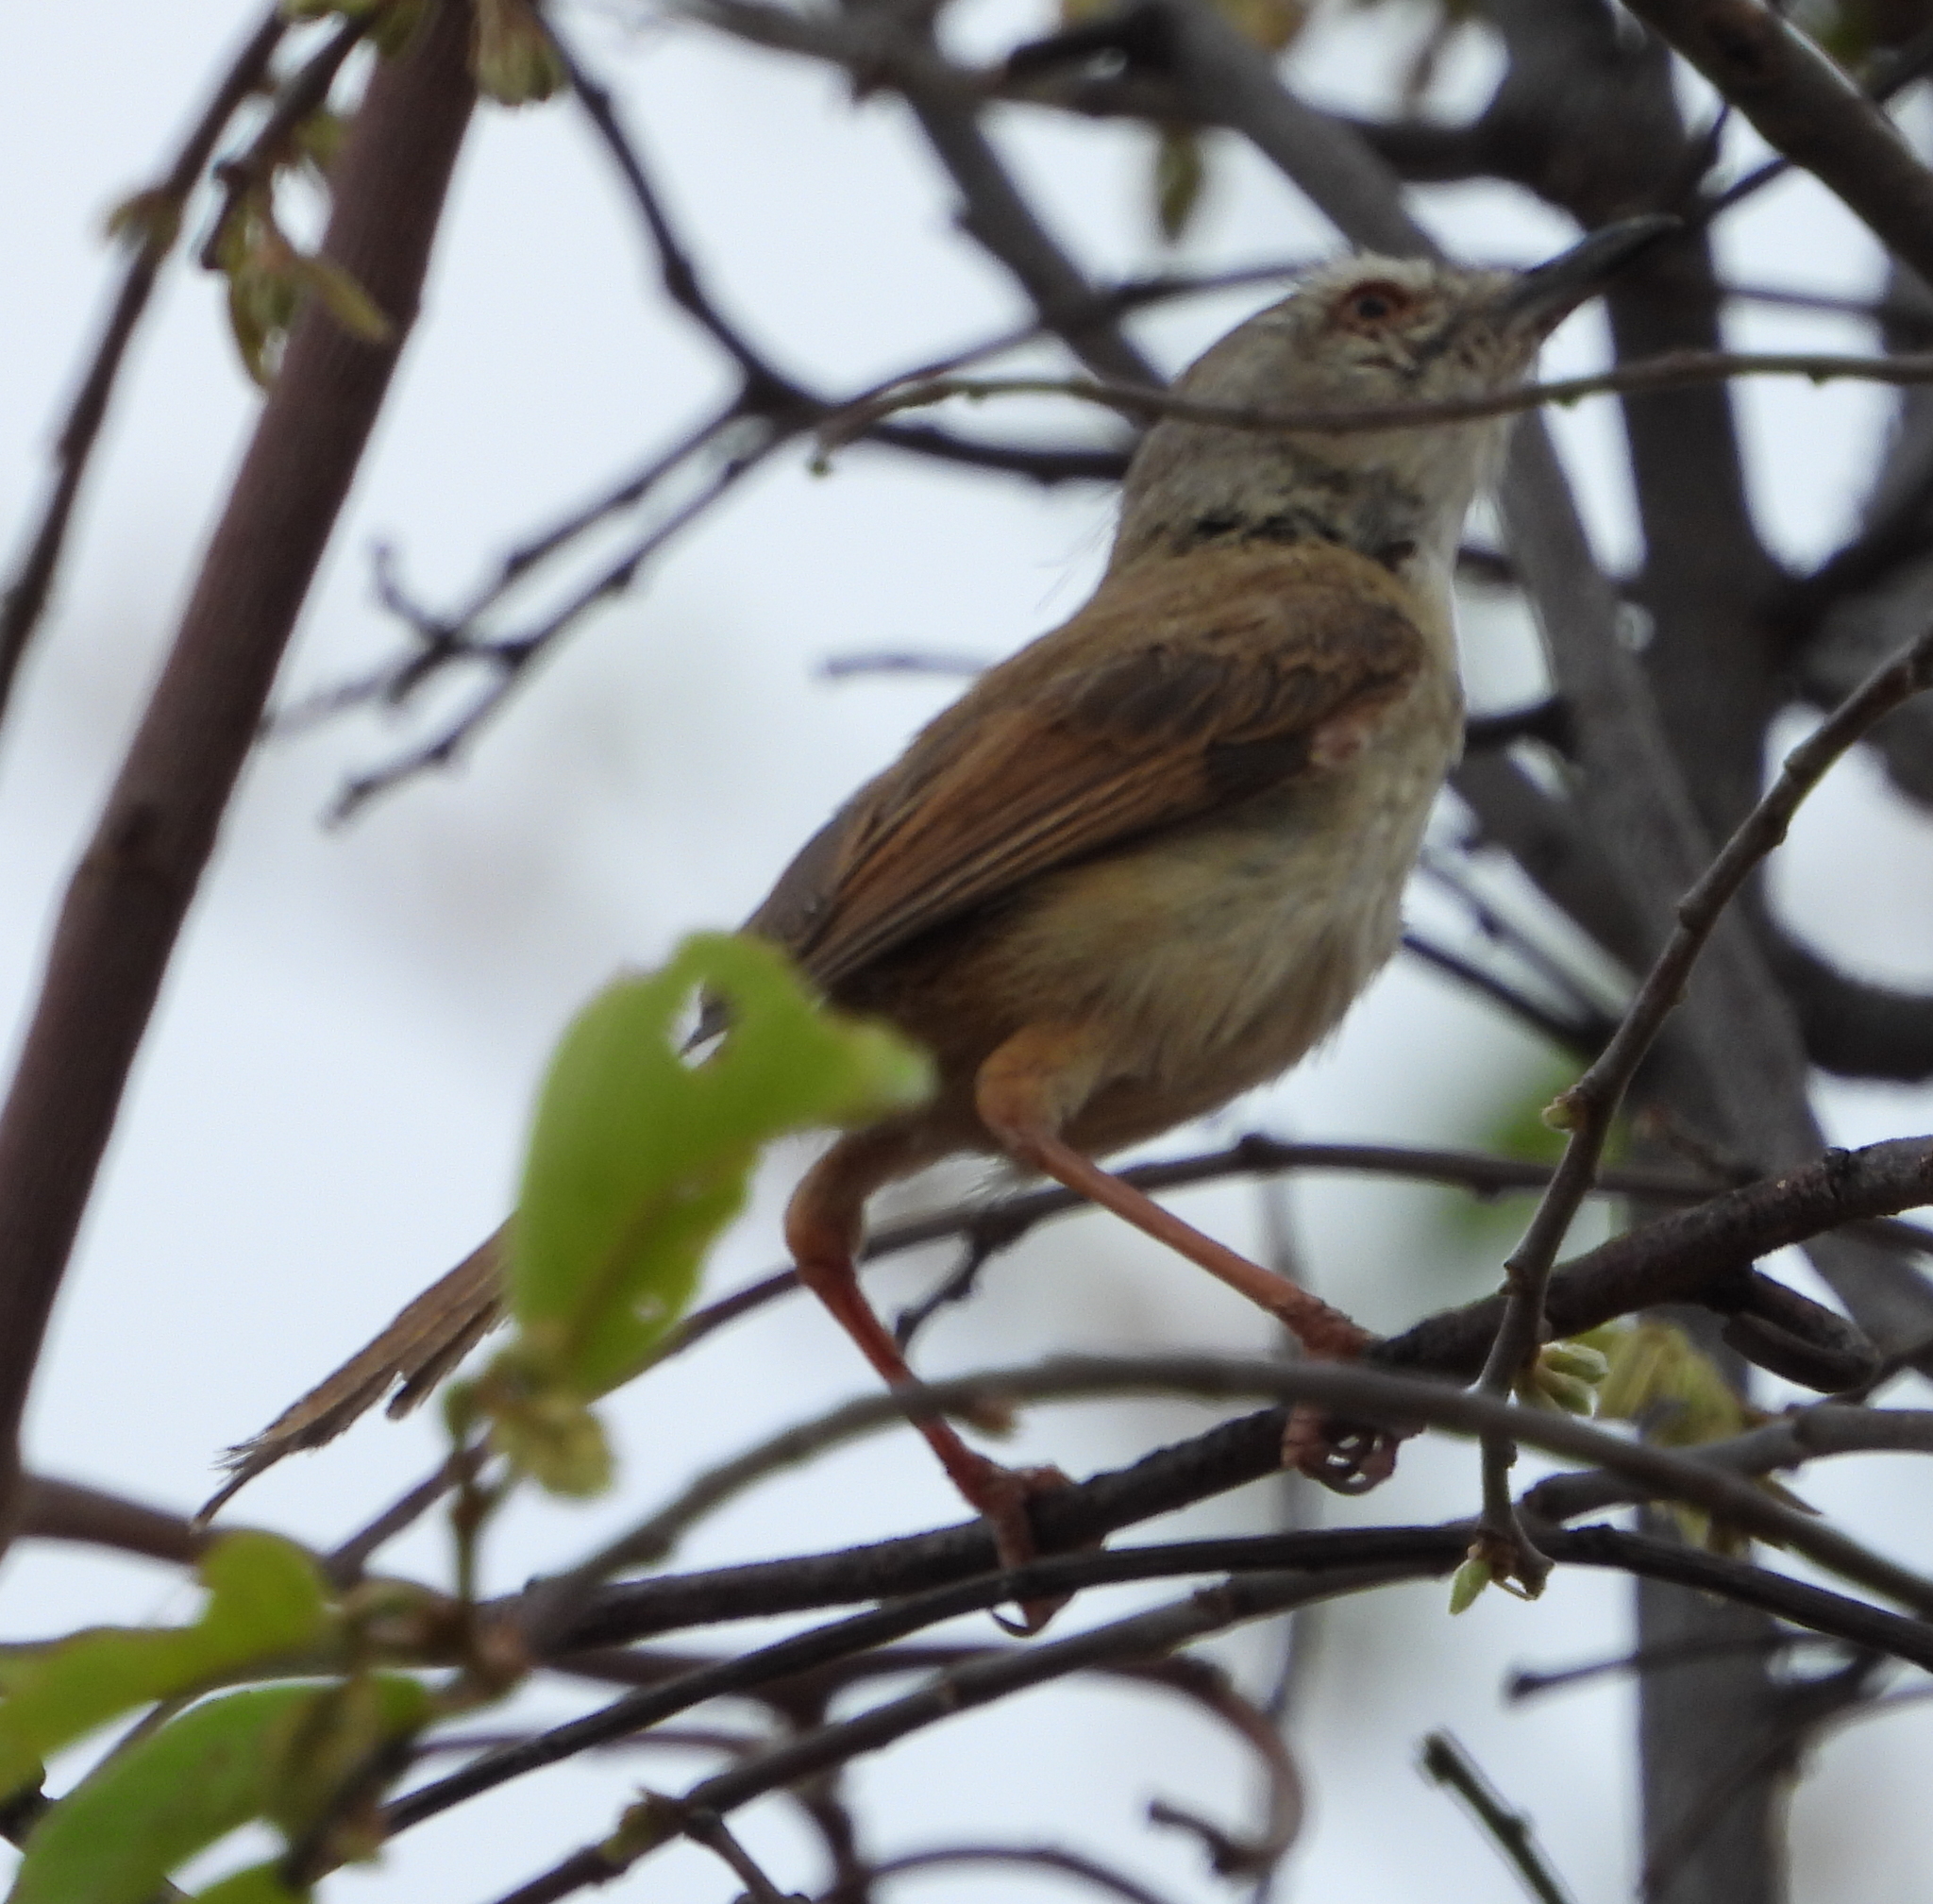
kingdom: Animalia
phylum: Chordata
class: Aves
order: Passeriformes
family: Cisticolidae
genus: Prinia
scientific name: Prinia subflava
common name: Tawny-flanked prinia
